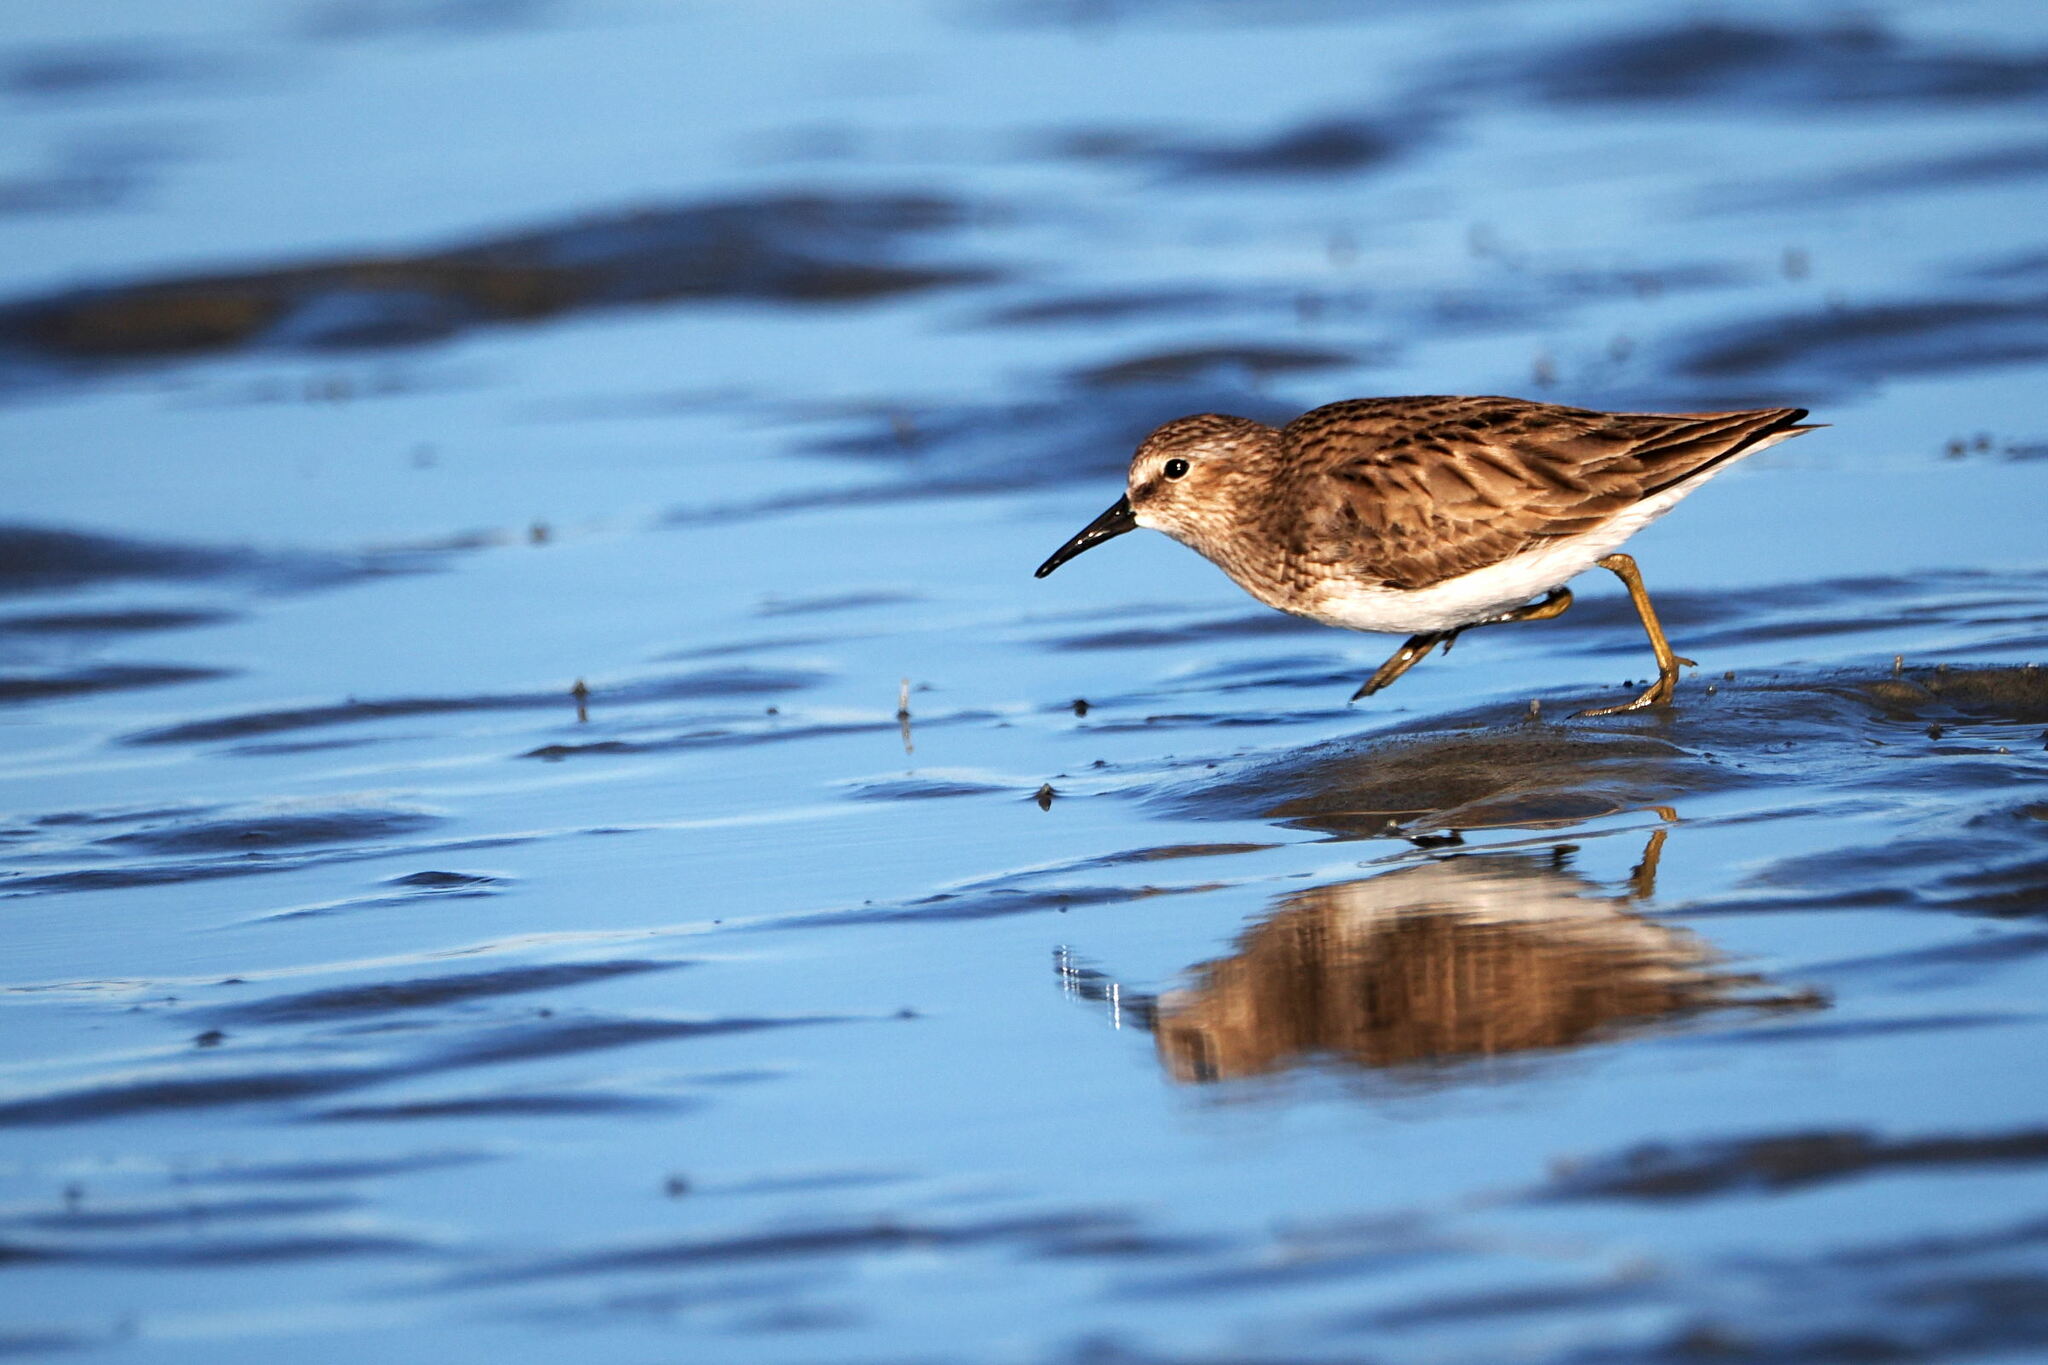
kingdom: Animalia
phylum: Chordata
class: Aves
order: Charadriiformes
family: Scolopacidae
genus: Calidris
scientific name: Calidris minutilla
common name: Least sandpiper
